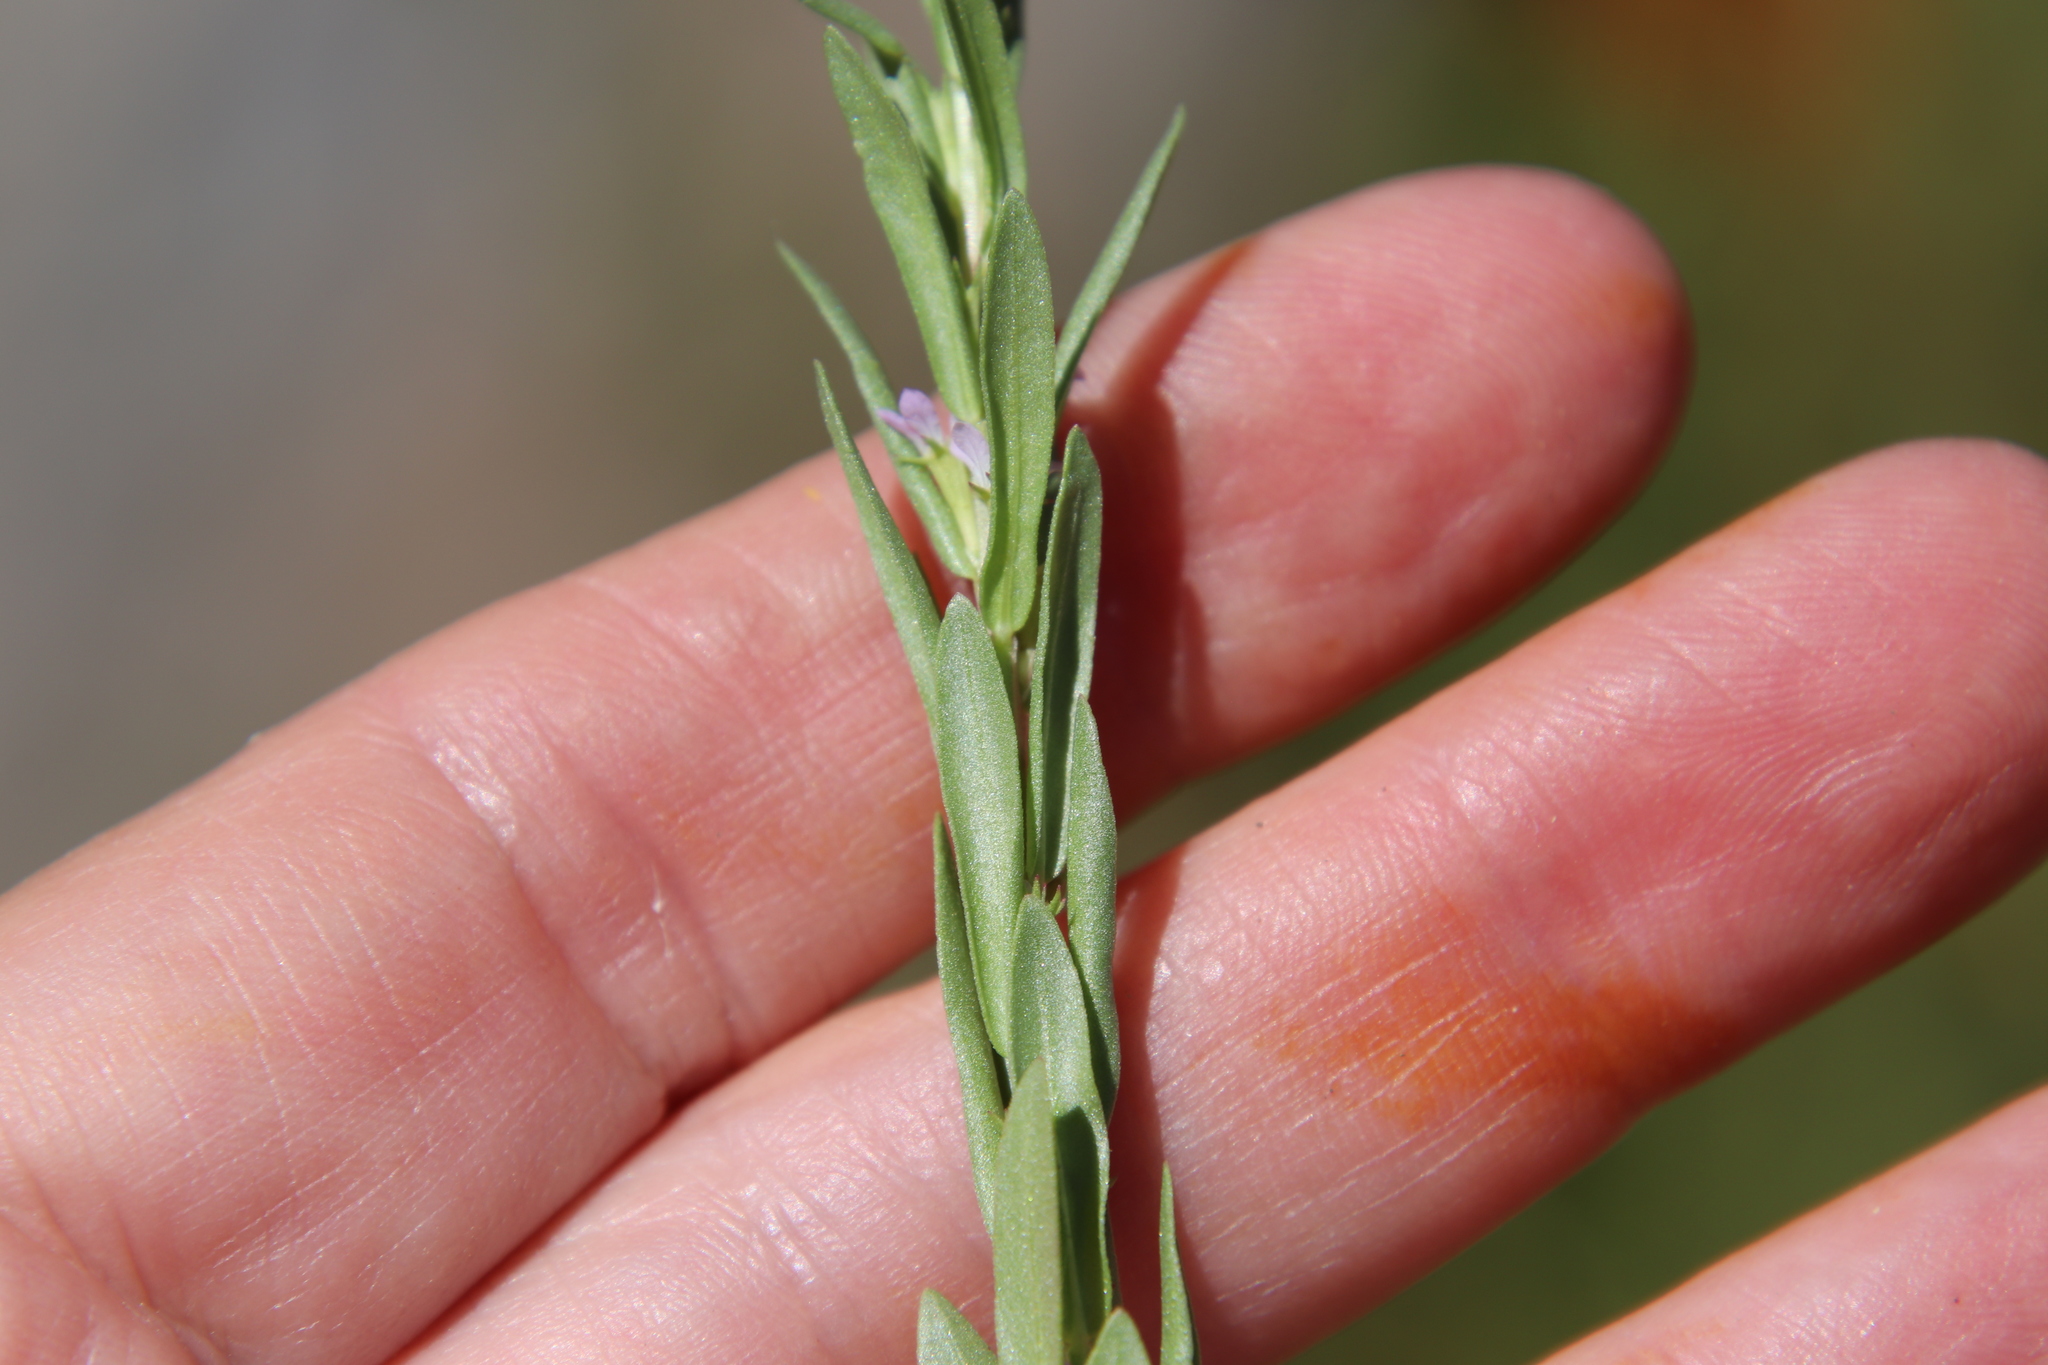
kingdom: Plantae
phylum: Tracheophyta
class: Magnoliopsida
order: Myrtales
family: Lythraceae
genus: Lythrum
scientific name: Lythrum hyssopifolia
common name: Grass-poly
